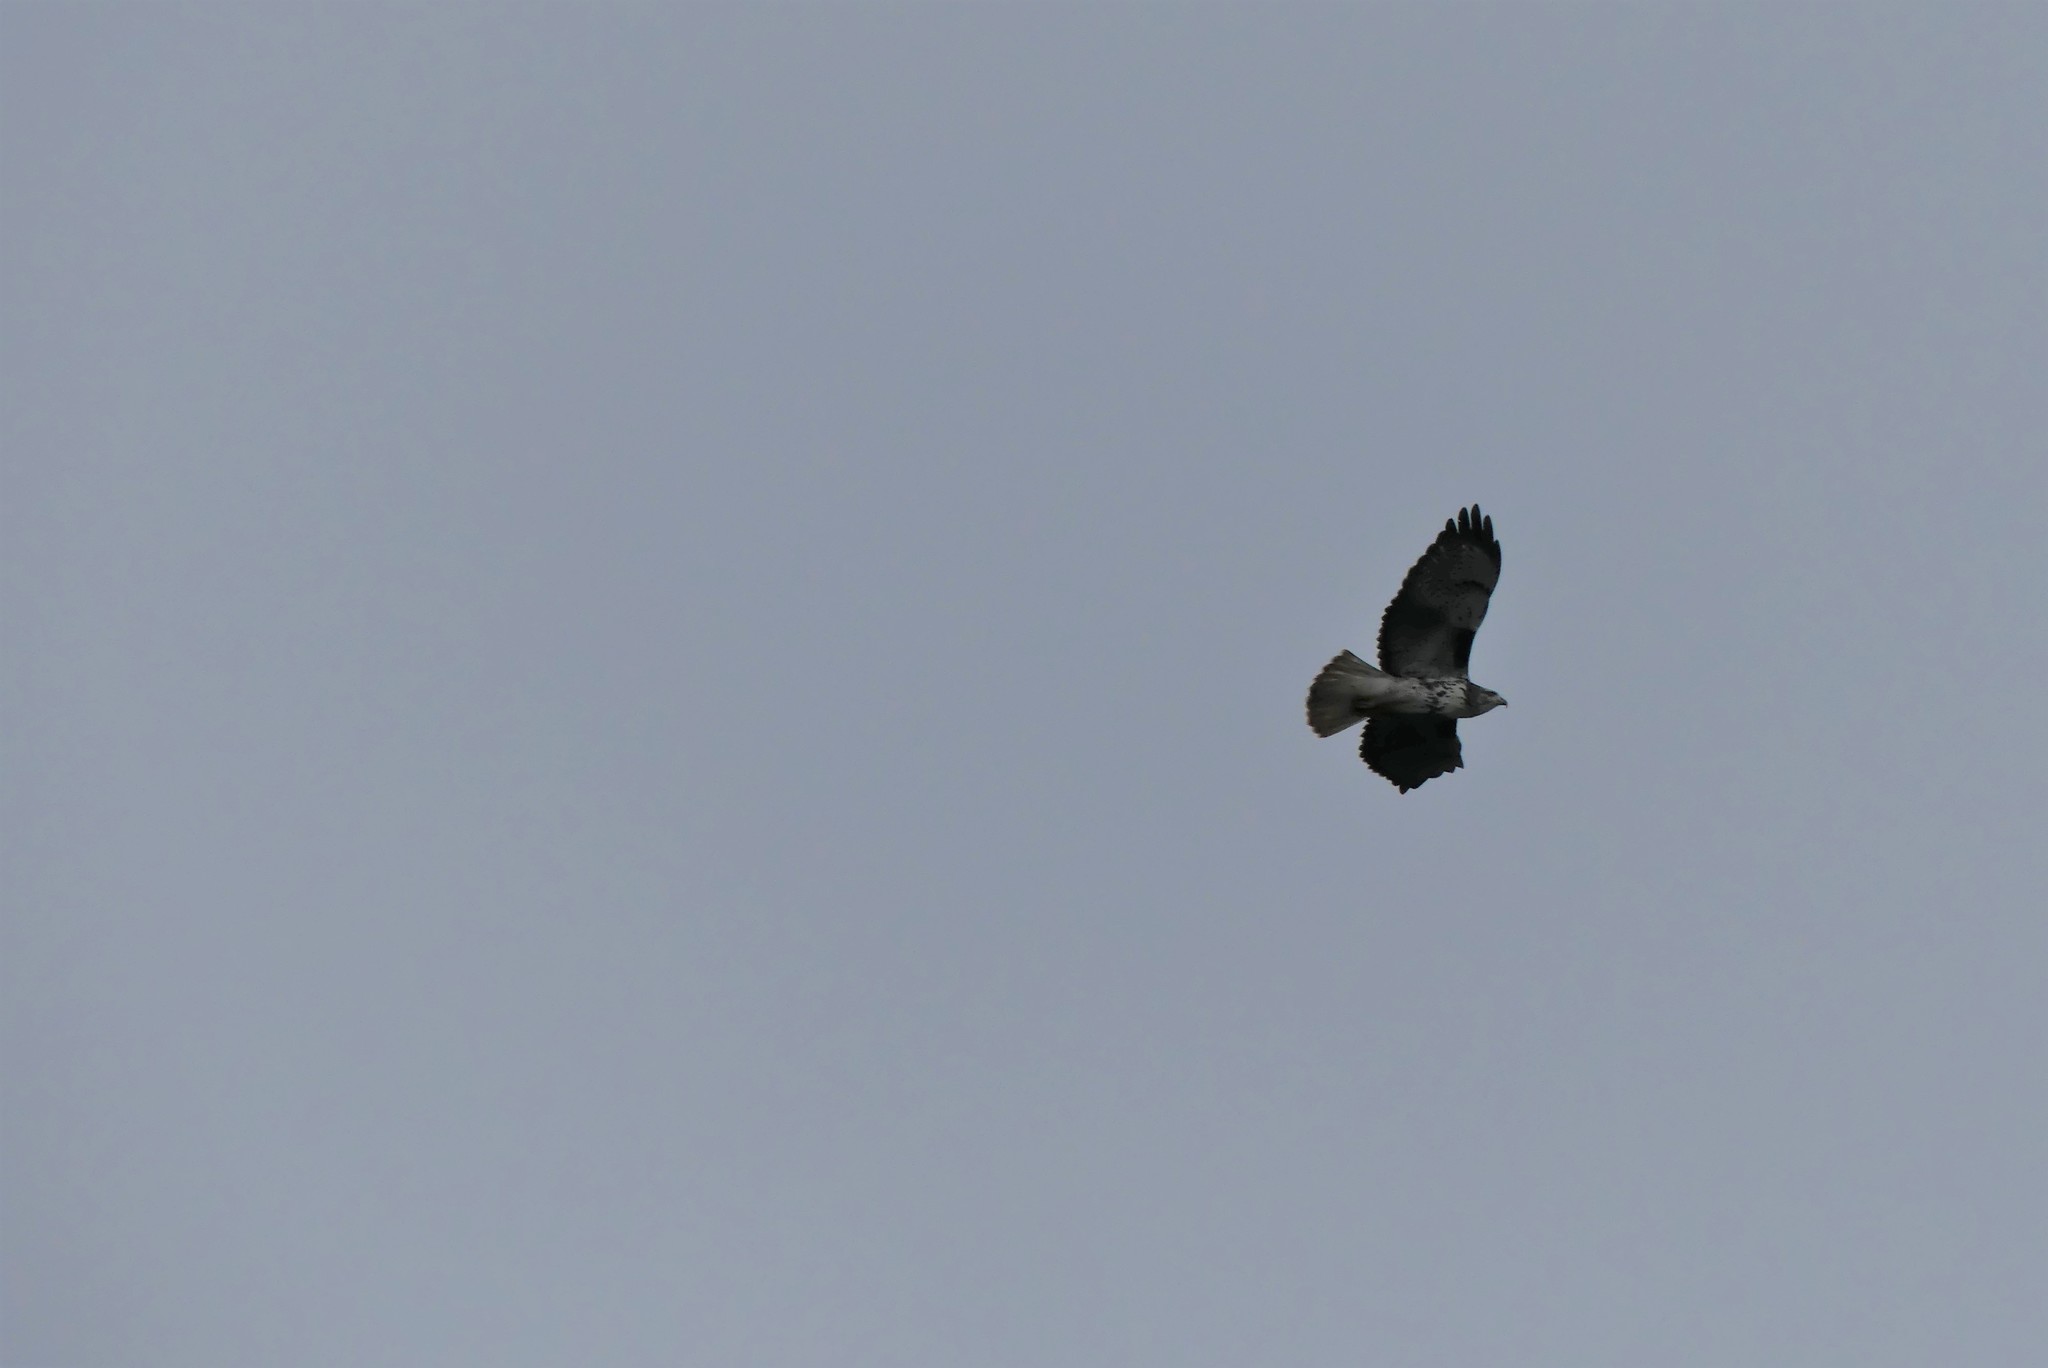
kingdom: Animalia
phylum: Chordata
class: Aves
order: Accipitriformes
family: Accipitridae
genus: Buteo
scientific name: Buteo jamaicensis
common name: Red-tailed hawk
